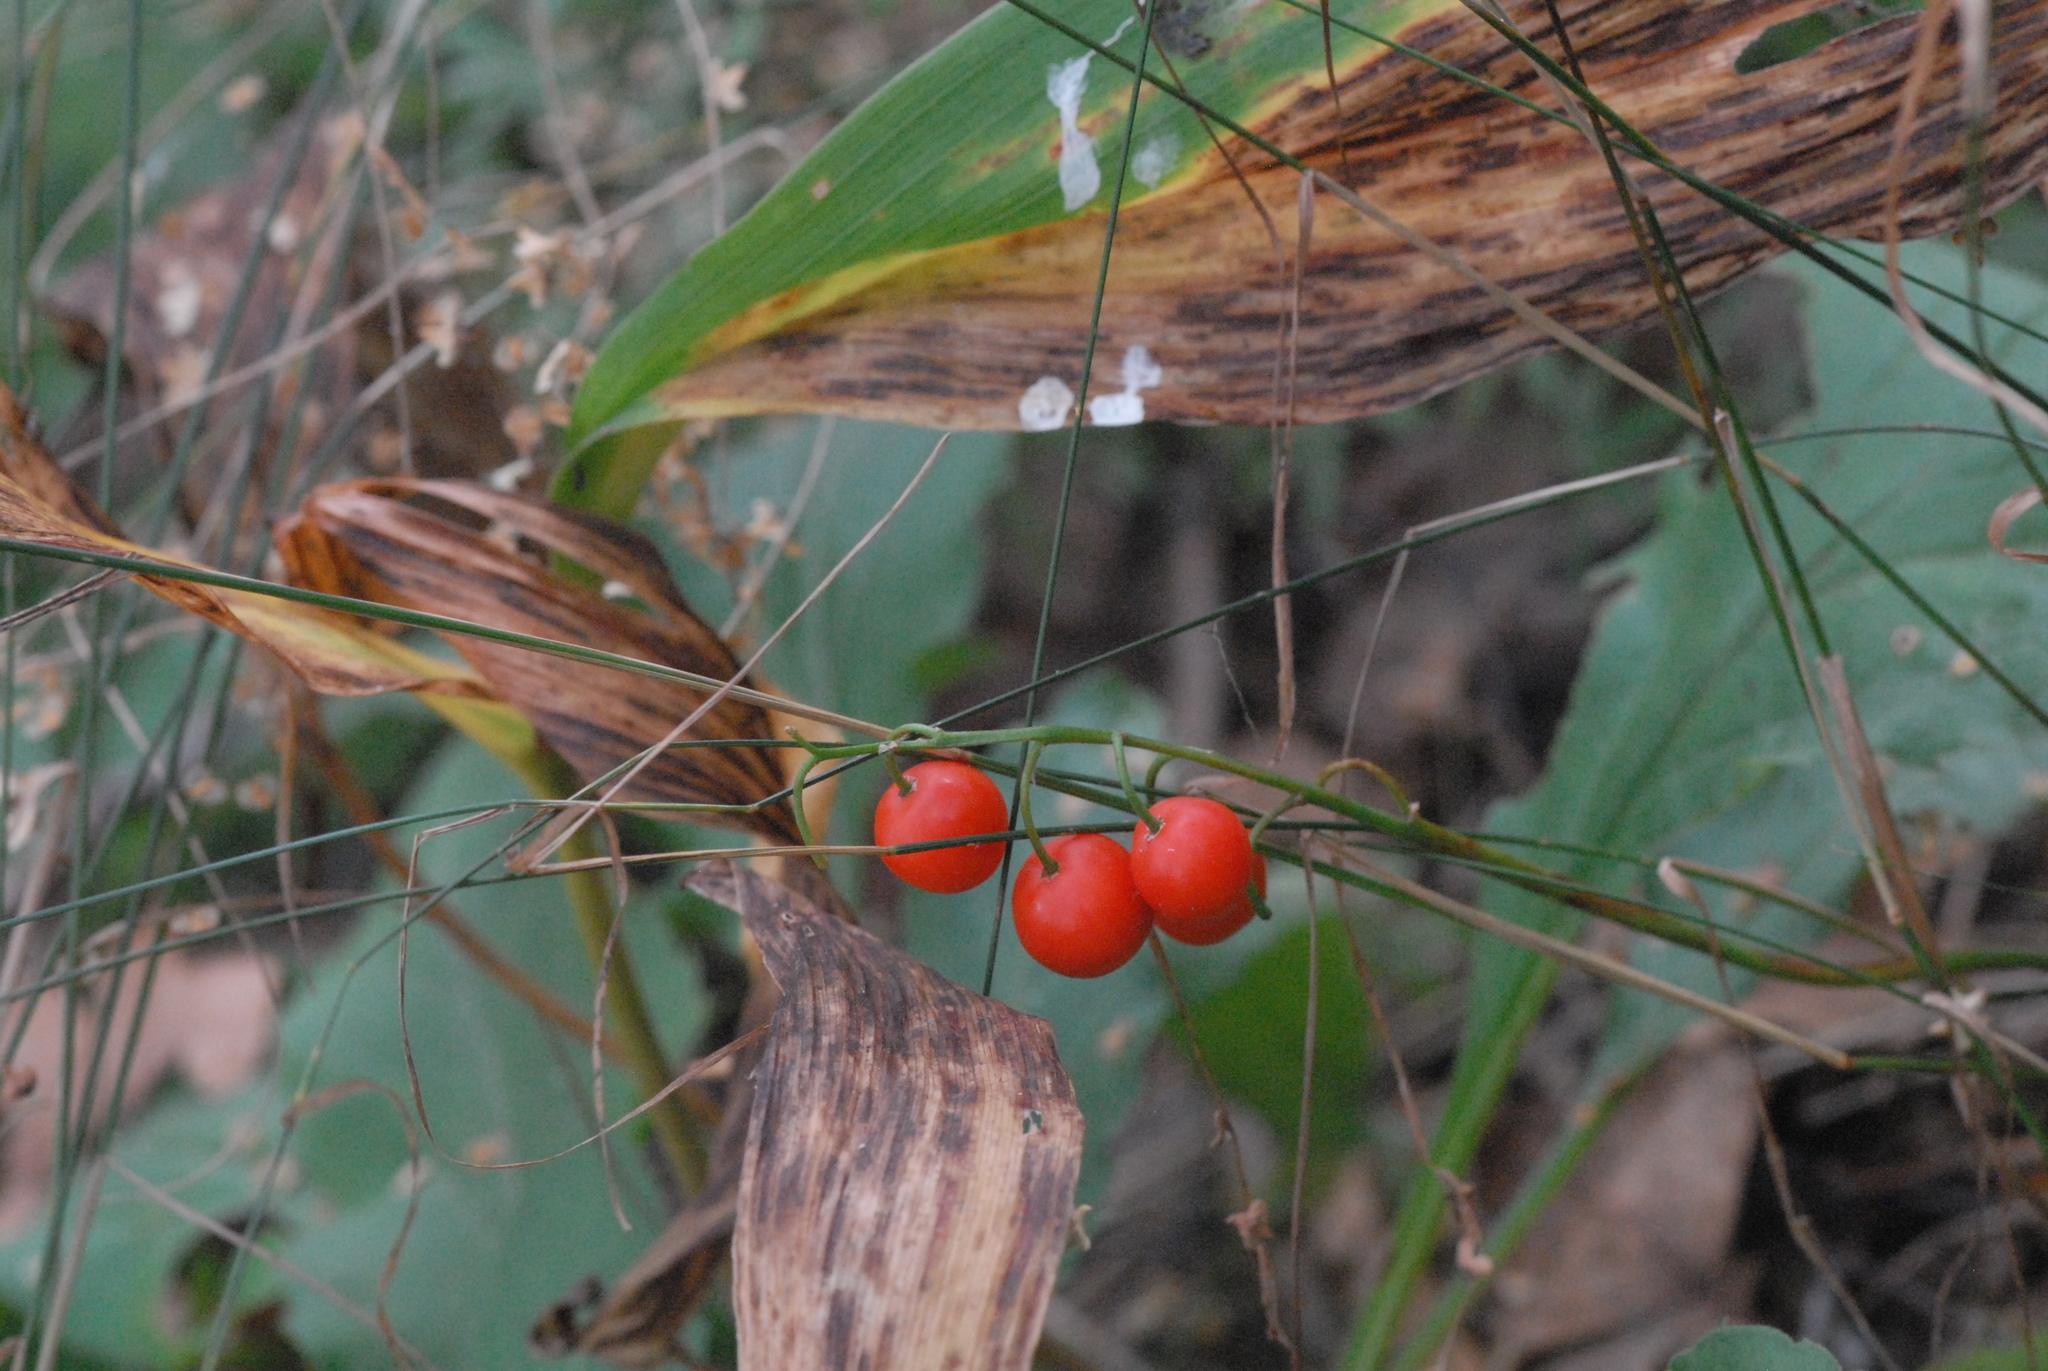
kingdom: Plantae
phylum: Tracheophyta
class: Liliopsida
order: Asparagales
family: Asparagaceae
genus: Convallaria
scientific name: Convallaria majalis
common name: Lily-of-the-valley
